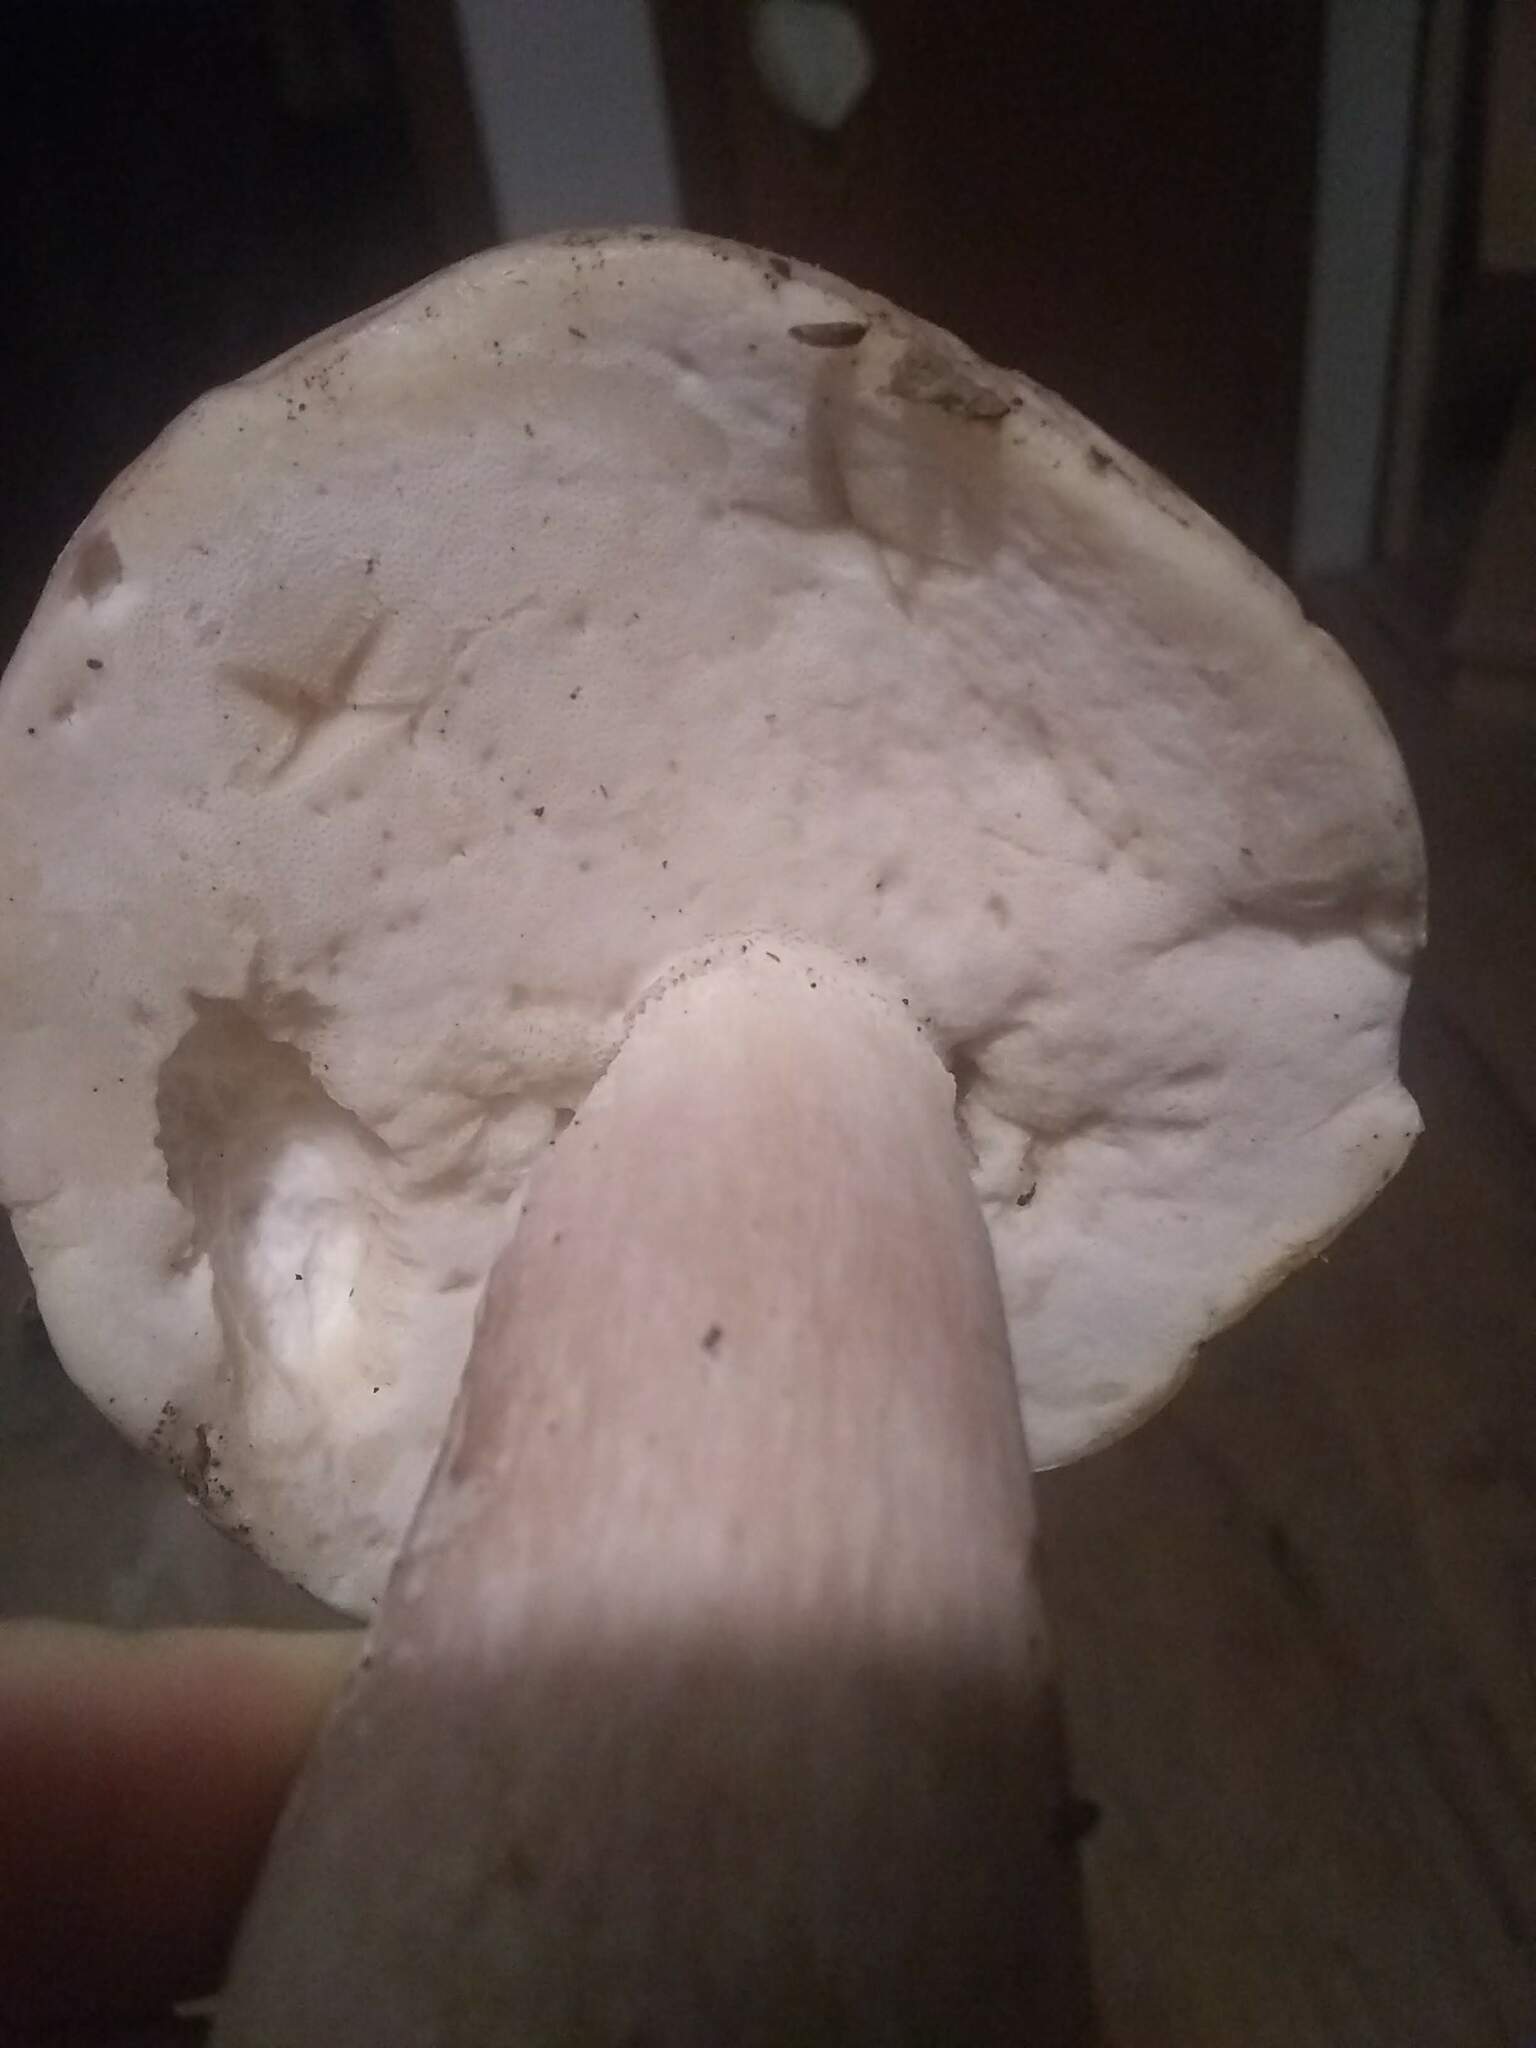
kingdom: Fungi
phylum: Basidiomycota
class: Agaricomycetes
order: Boletales
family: Boletaceae
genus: Xanthoconium
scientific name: Xanthoconium separans
